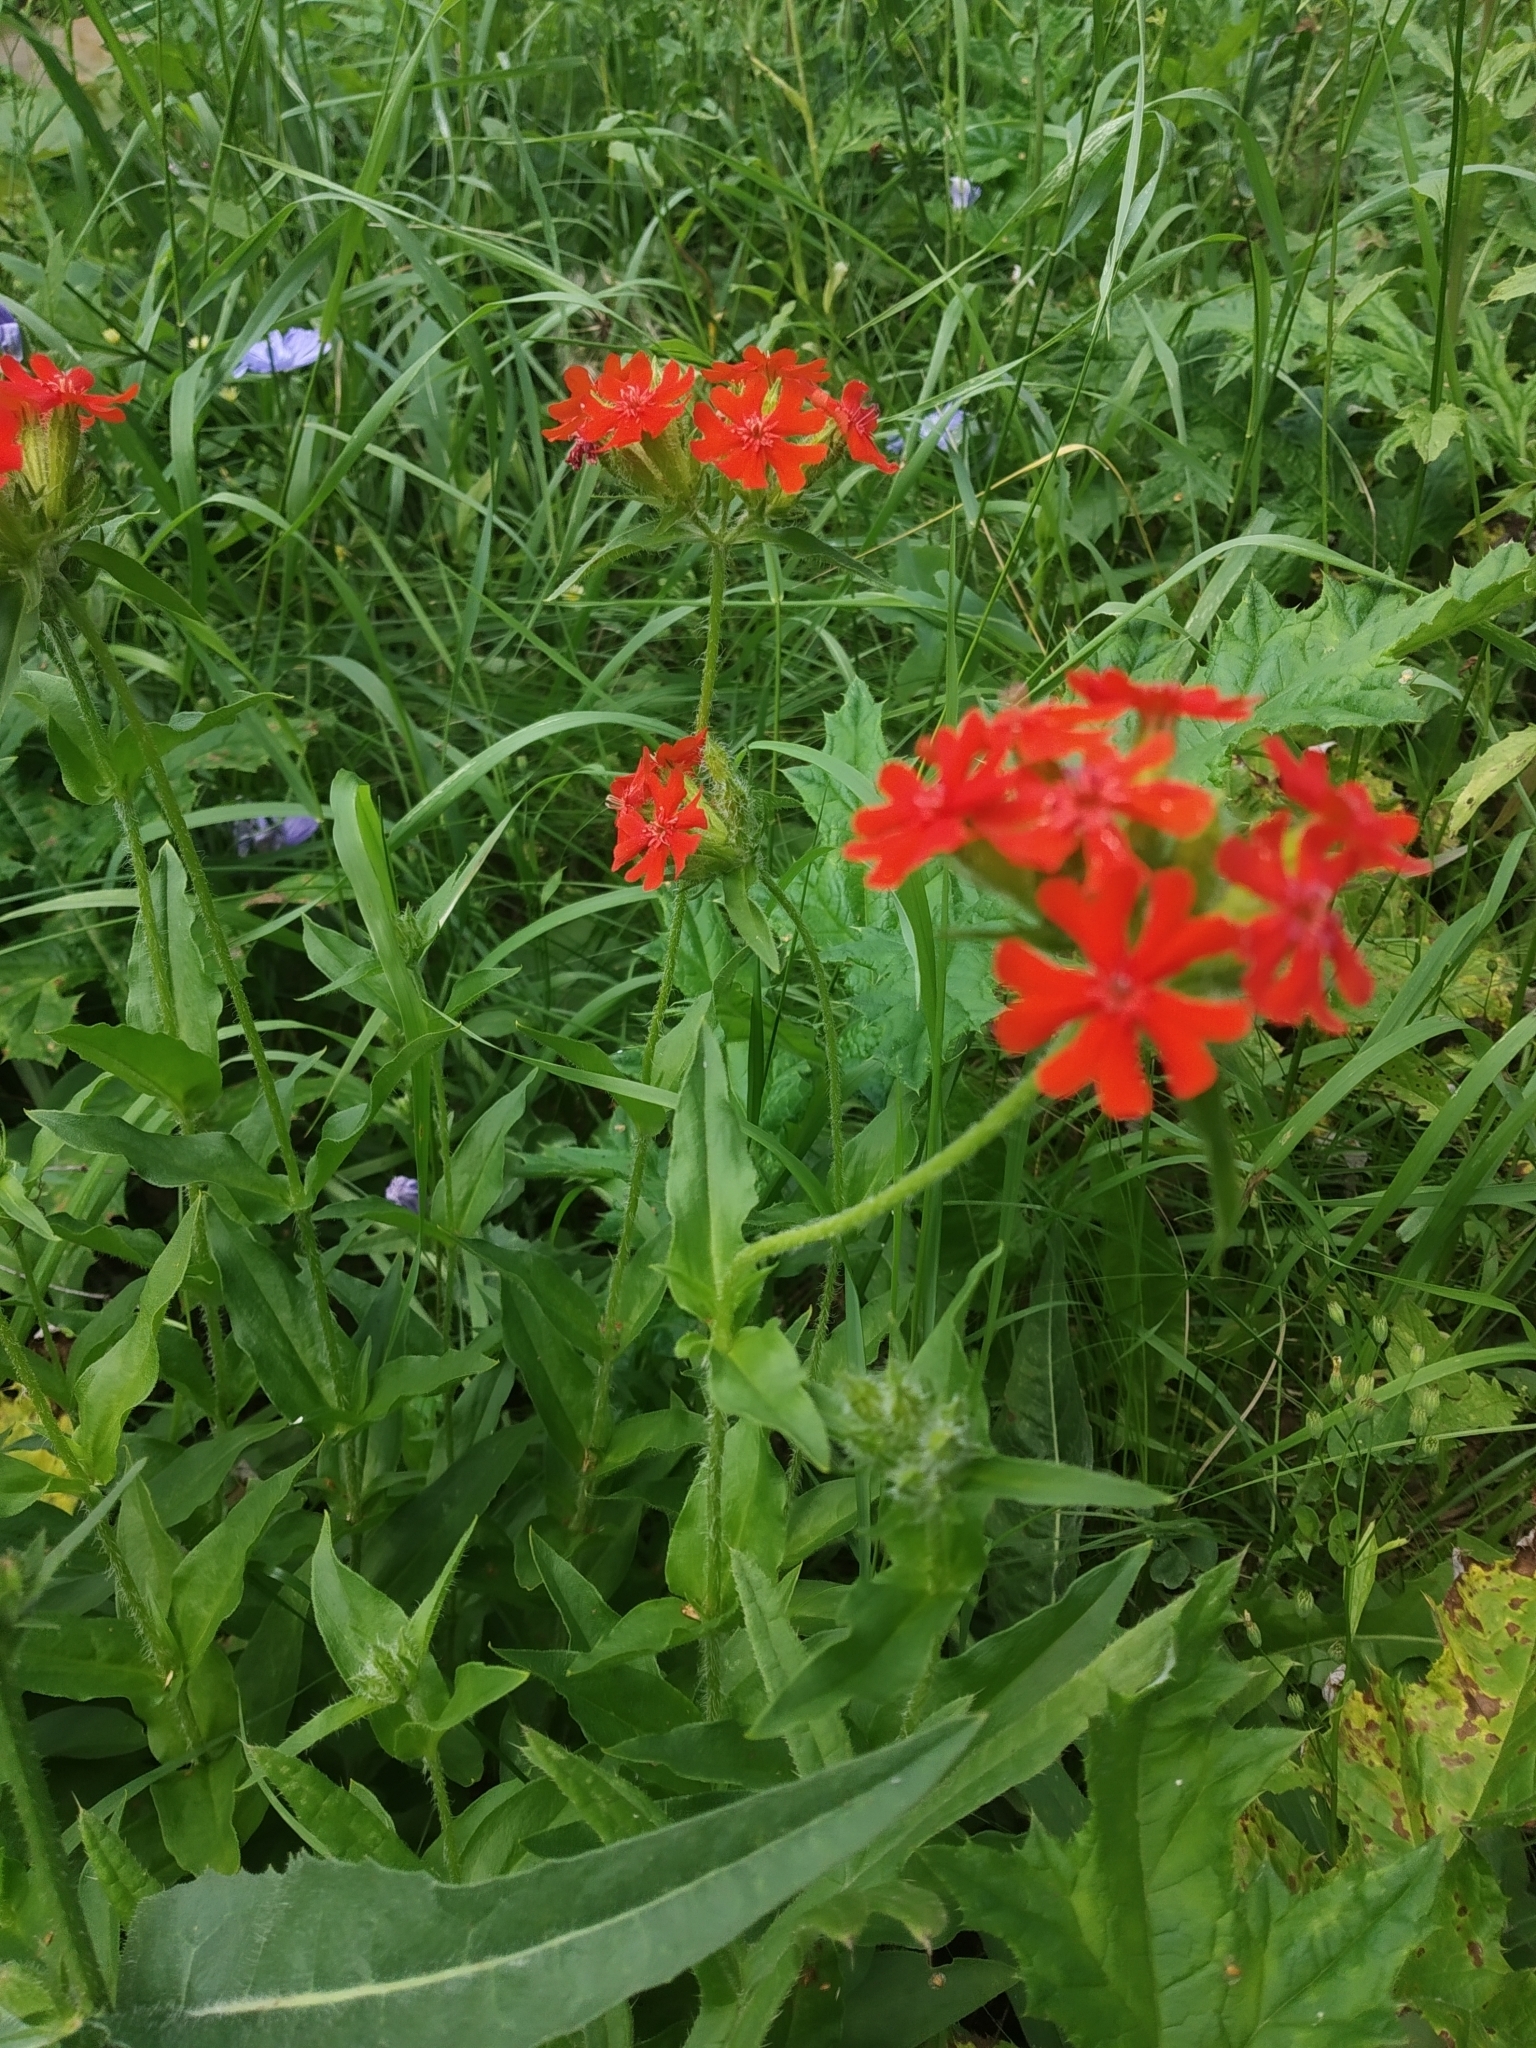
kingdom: Plantae
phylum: Tracheophyta
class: Magnoliopsida
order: Caryophyllales
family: Caryophyllaceae
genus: Silene
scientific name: Silene chalcedonica
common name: Maltese-cross
